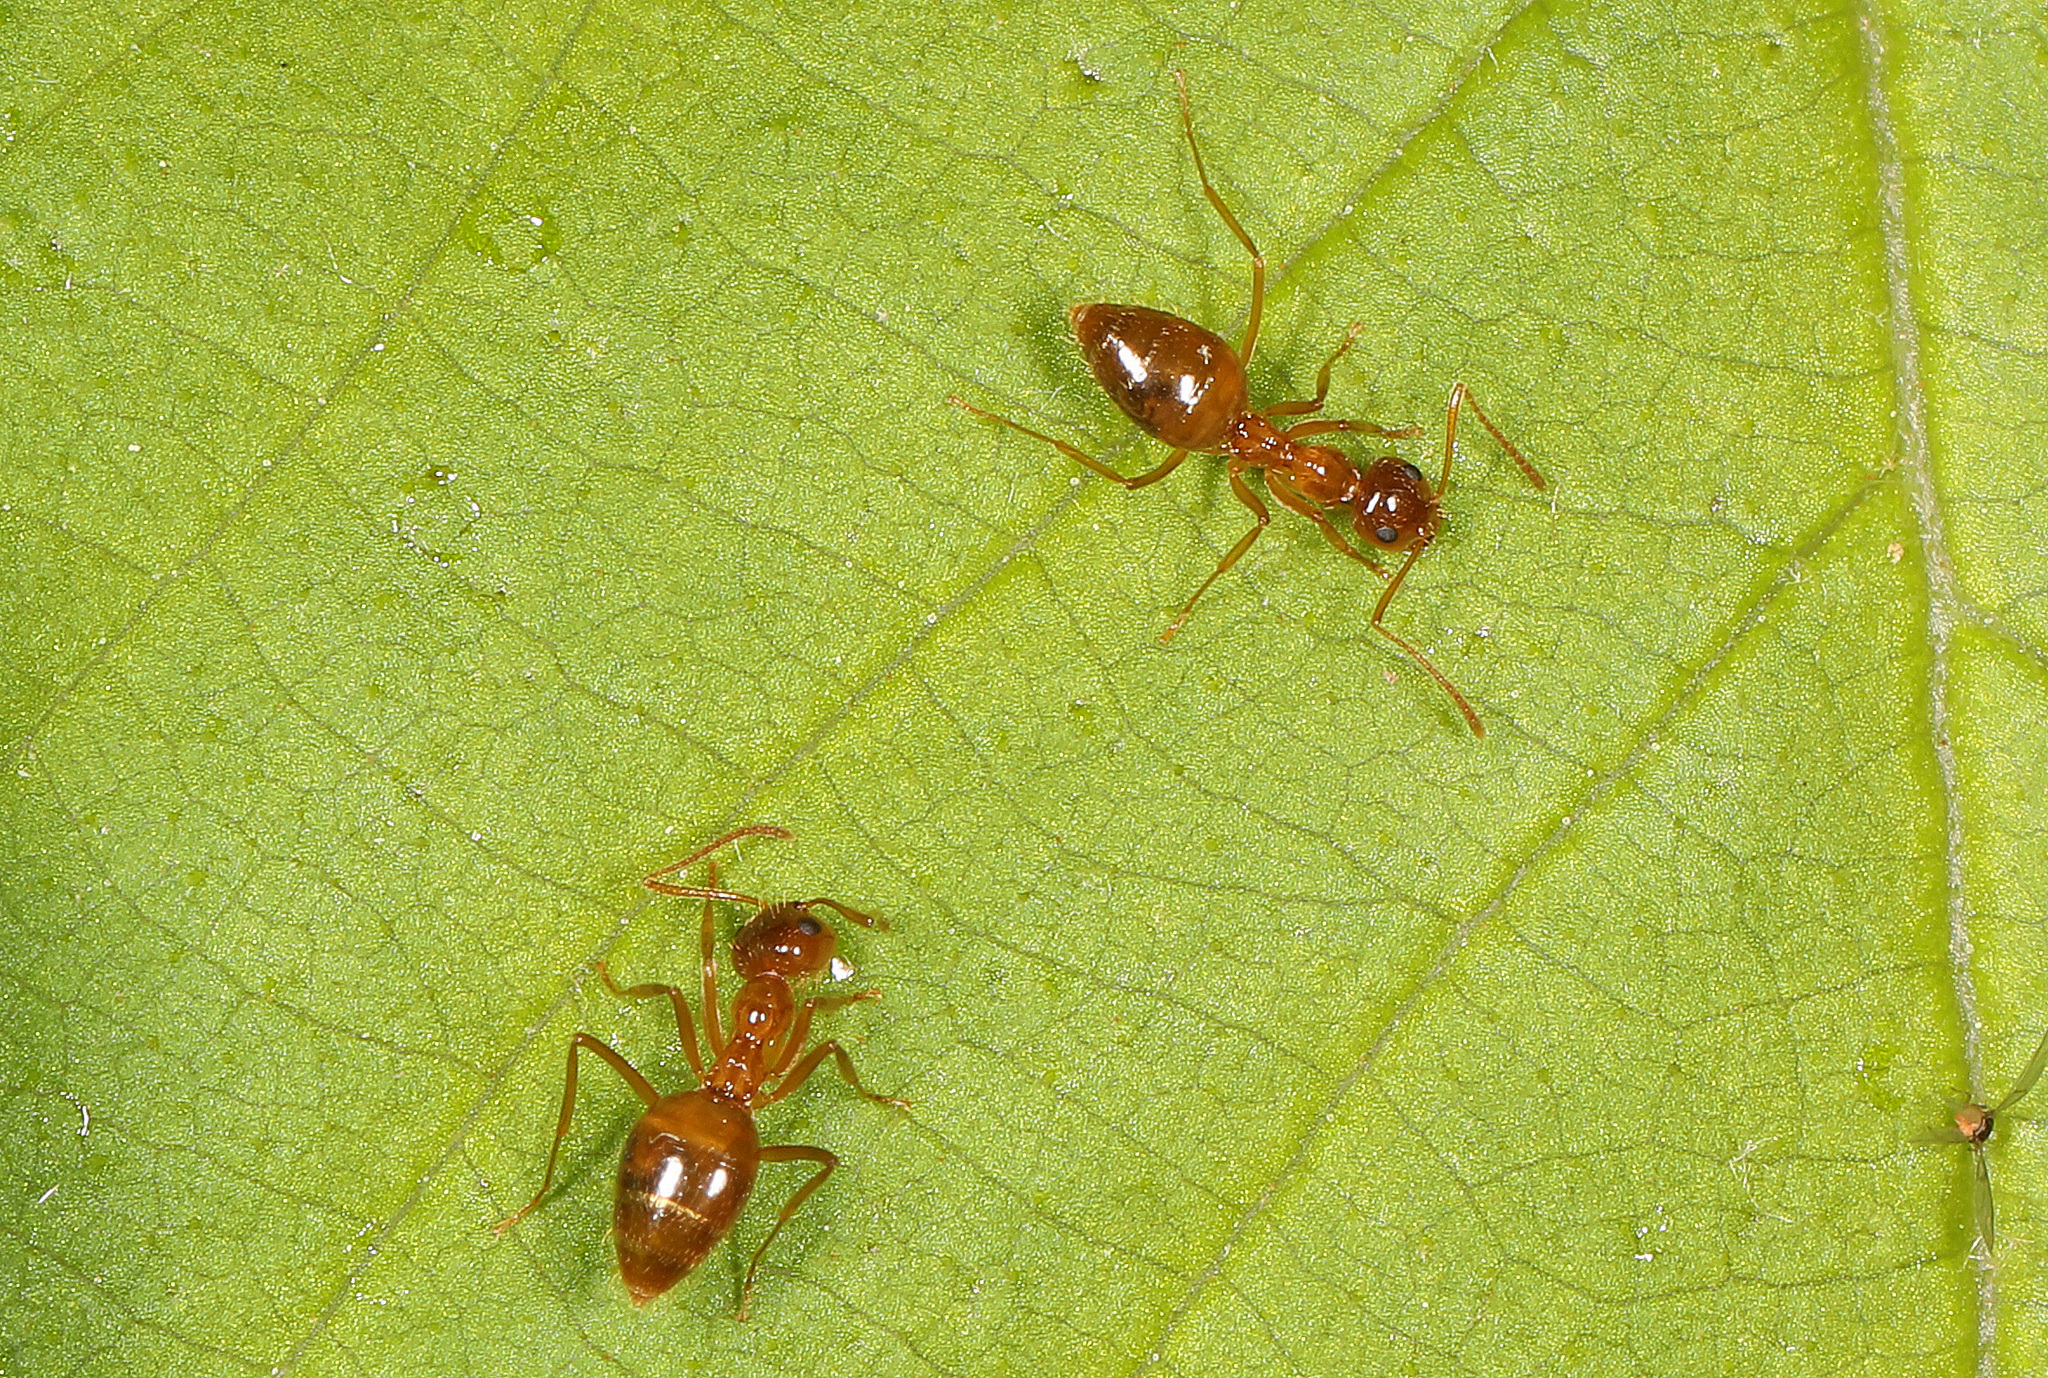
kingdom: Animalia
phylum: Arthropoda
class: Insecta
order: Hymenoptera
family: Formicidae
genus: Prenolepis
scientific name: Prenolepis imparis
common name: Small honey ant
